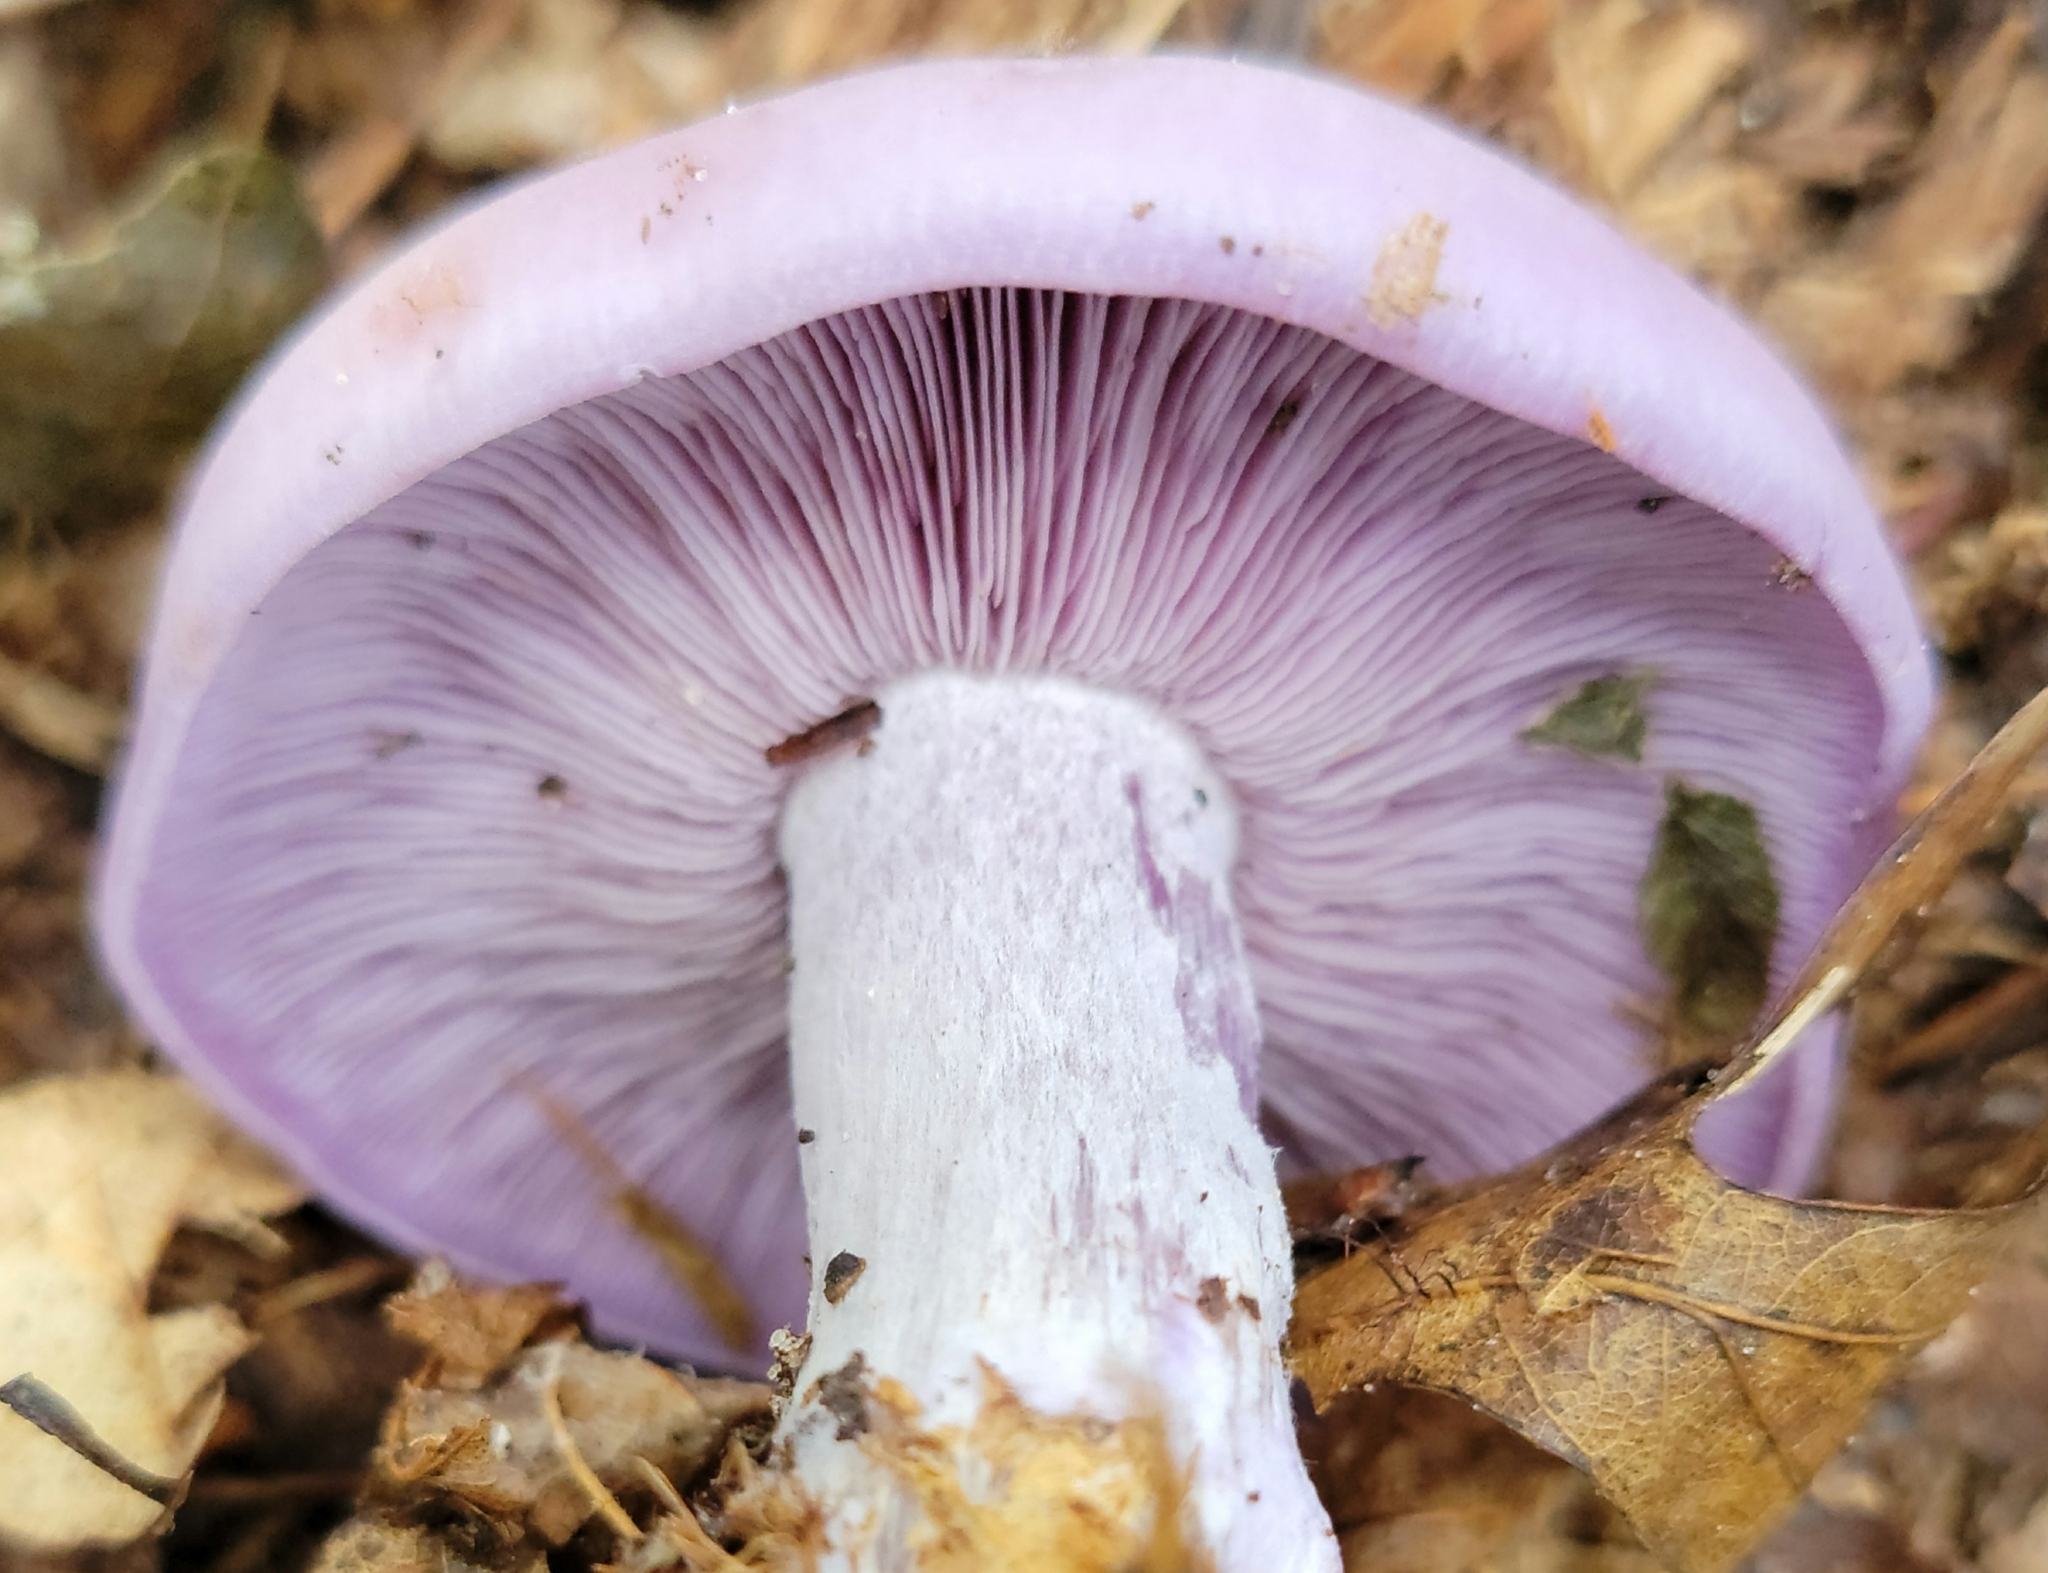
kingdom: Fungi
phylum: Basidiomycota
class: Agaricomycetes
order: Agaricales
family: Tricholomataceae
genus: Collybia
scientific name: Collybia
